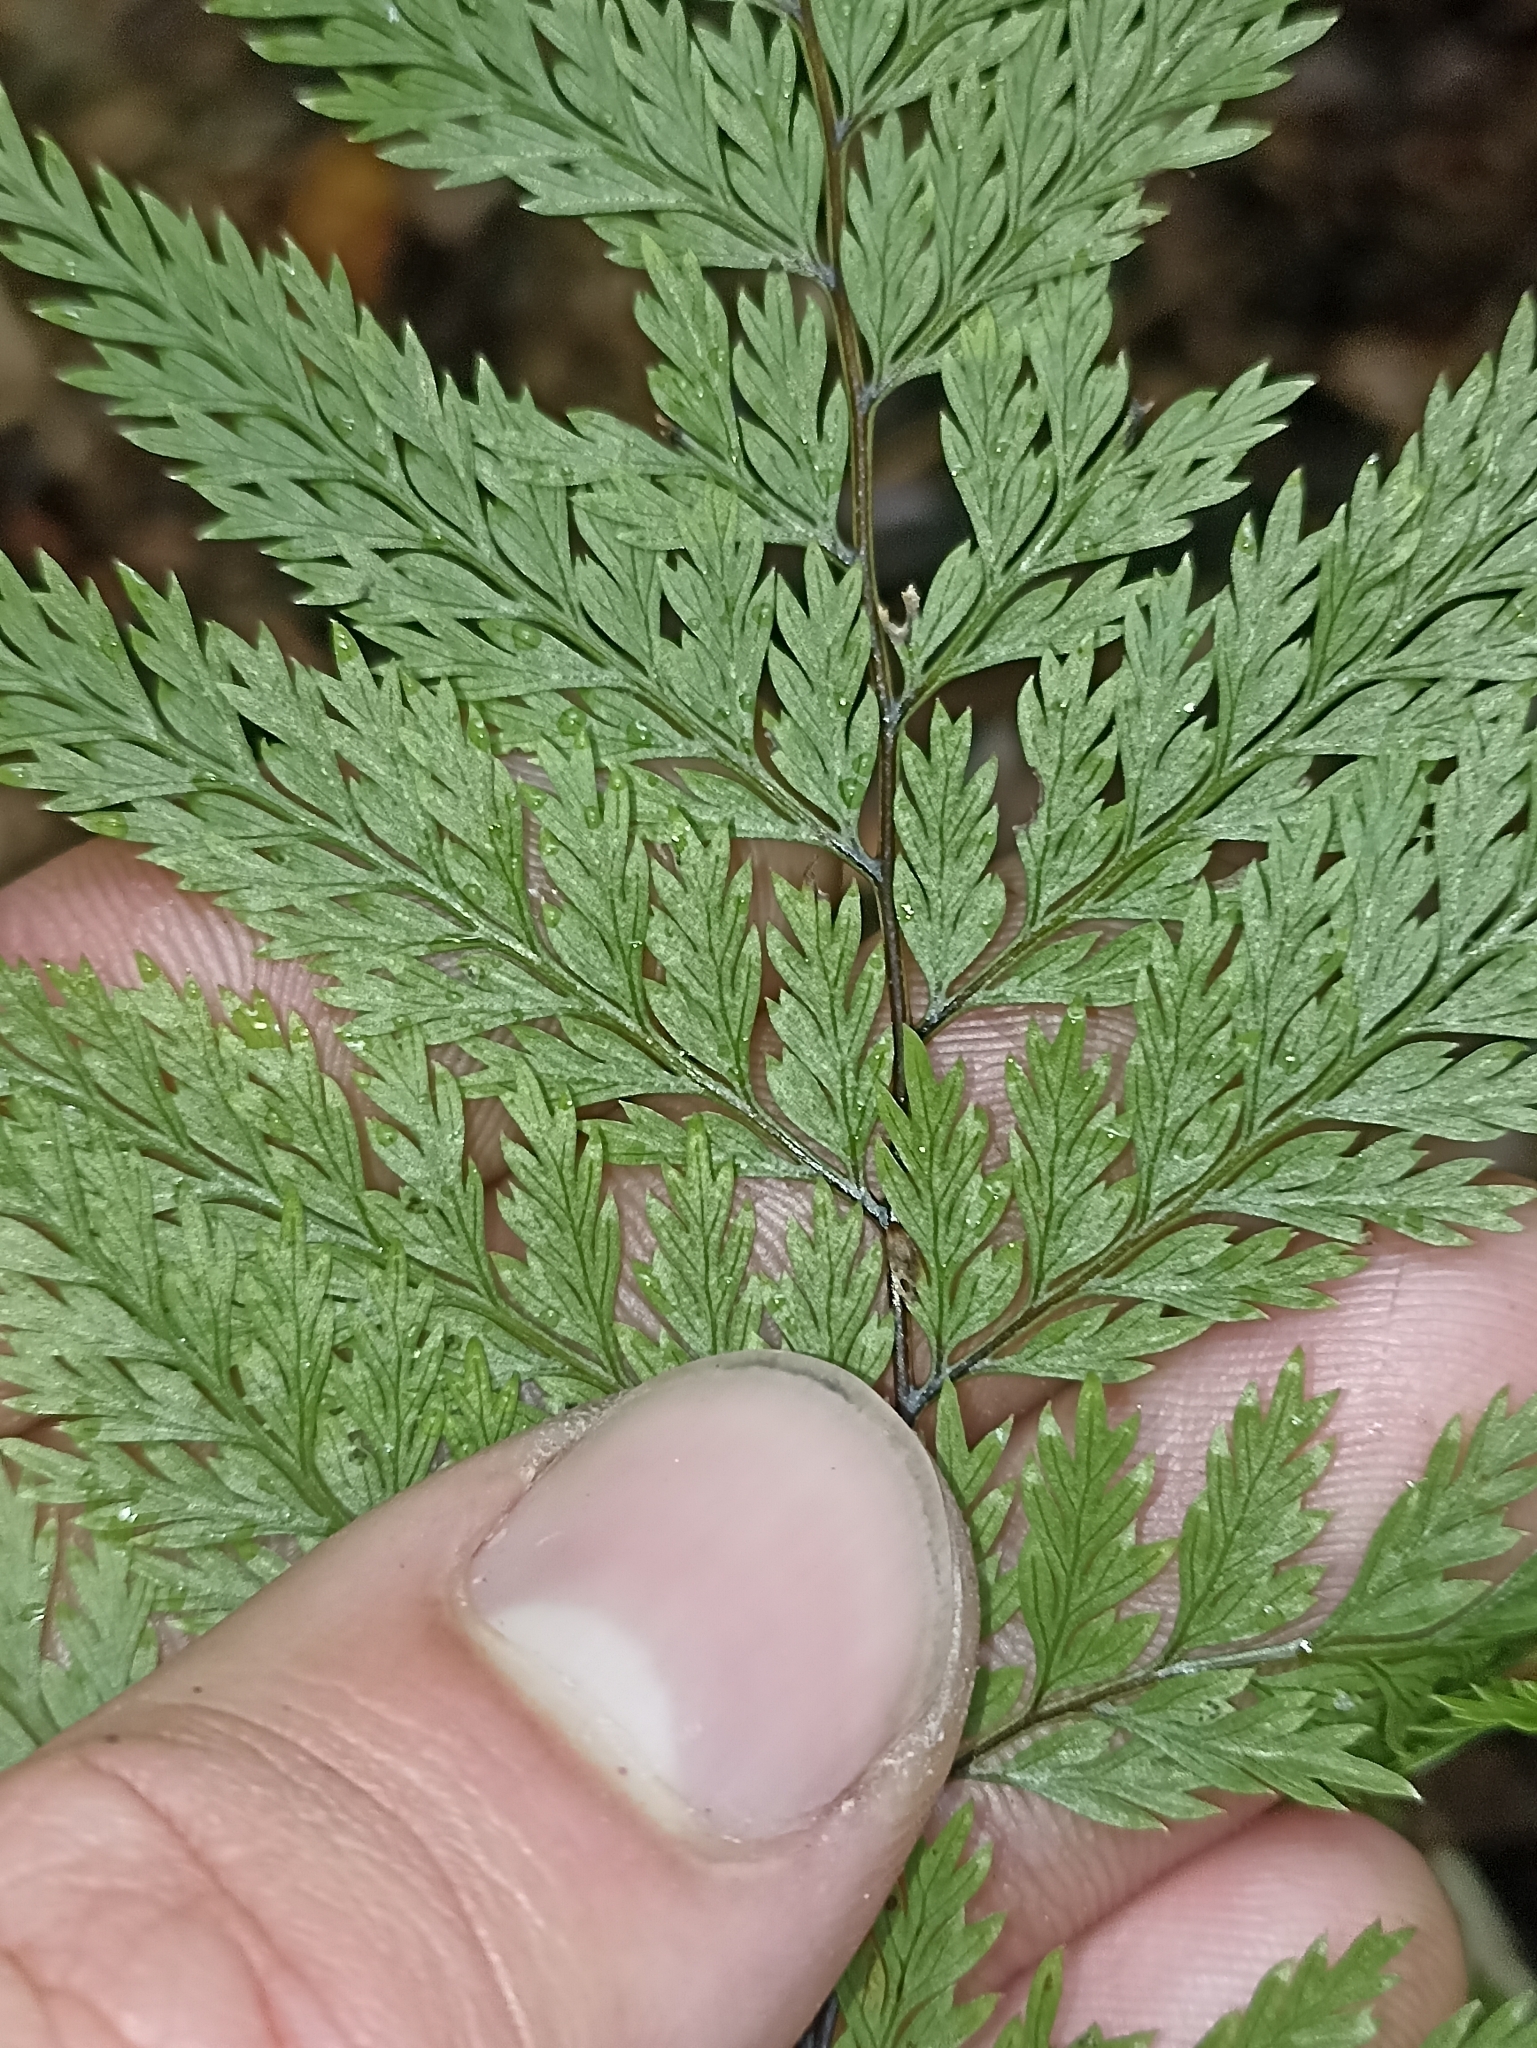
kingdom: Plantae
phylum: Tracheophyta
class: Polypodiopsida
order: Polypodiales
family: Dennstaedtiaceae
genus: Dennstaedtia
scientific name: Dennstaedtia novae-zelandiae
